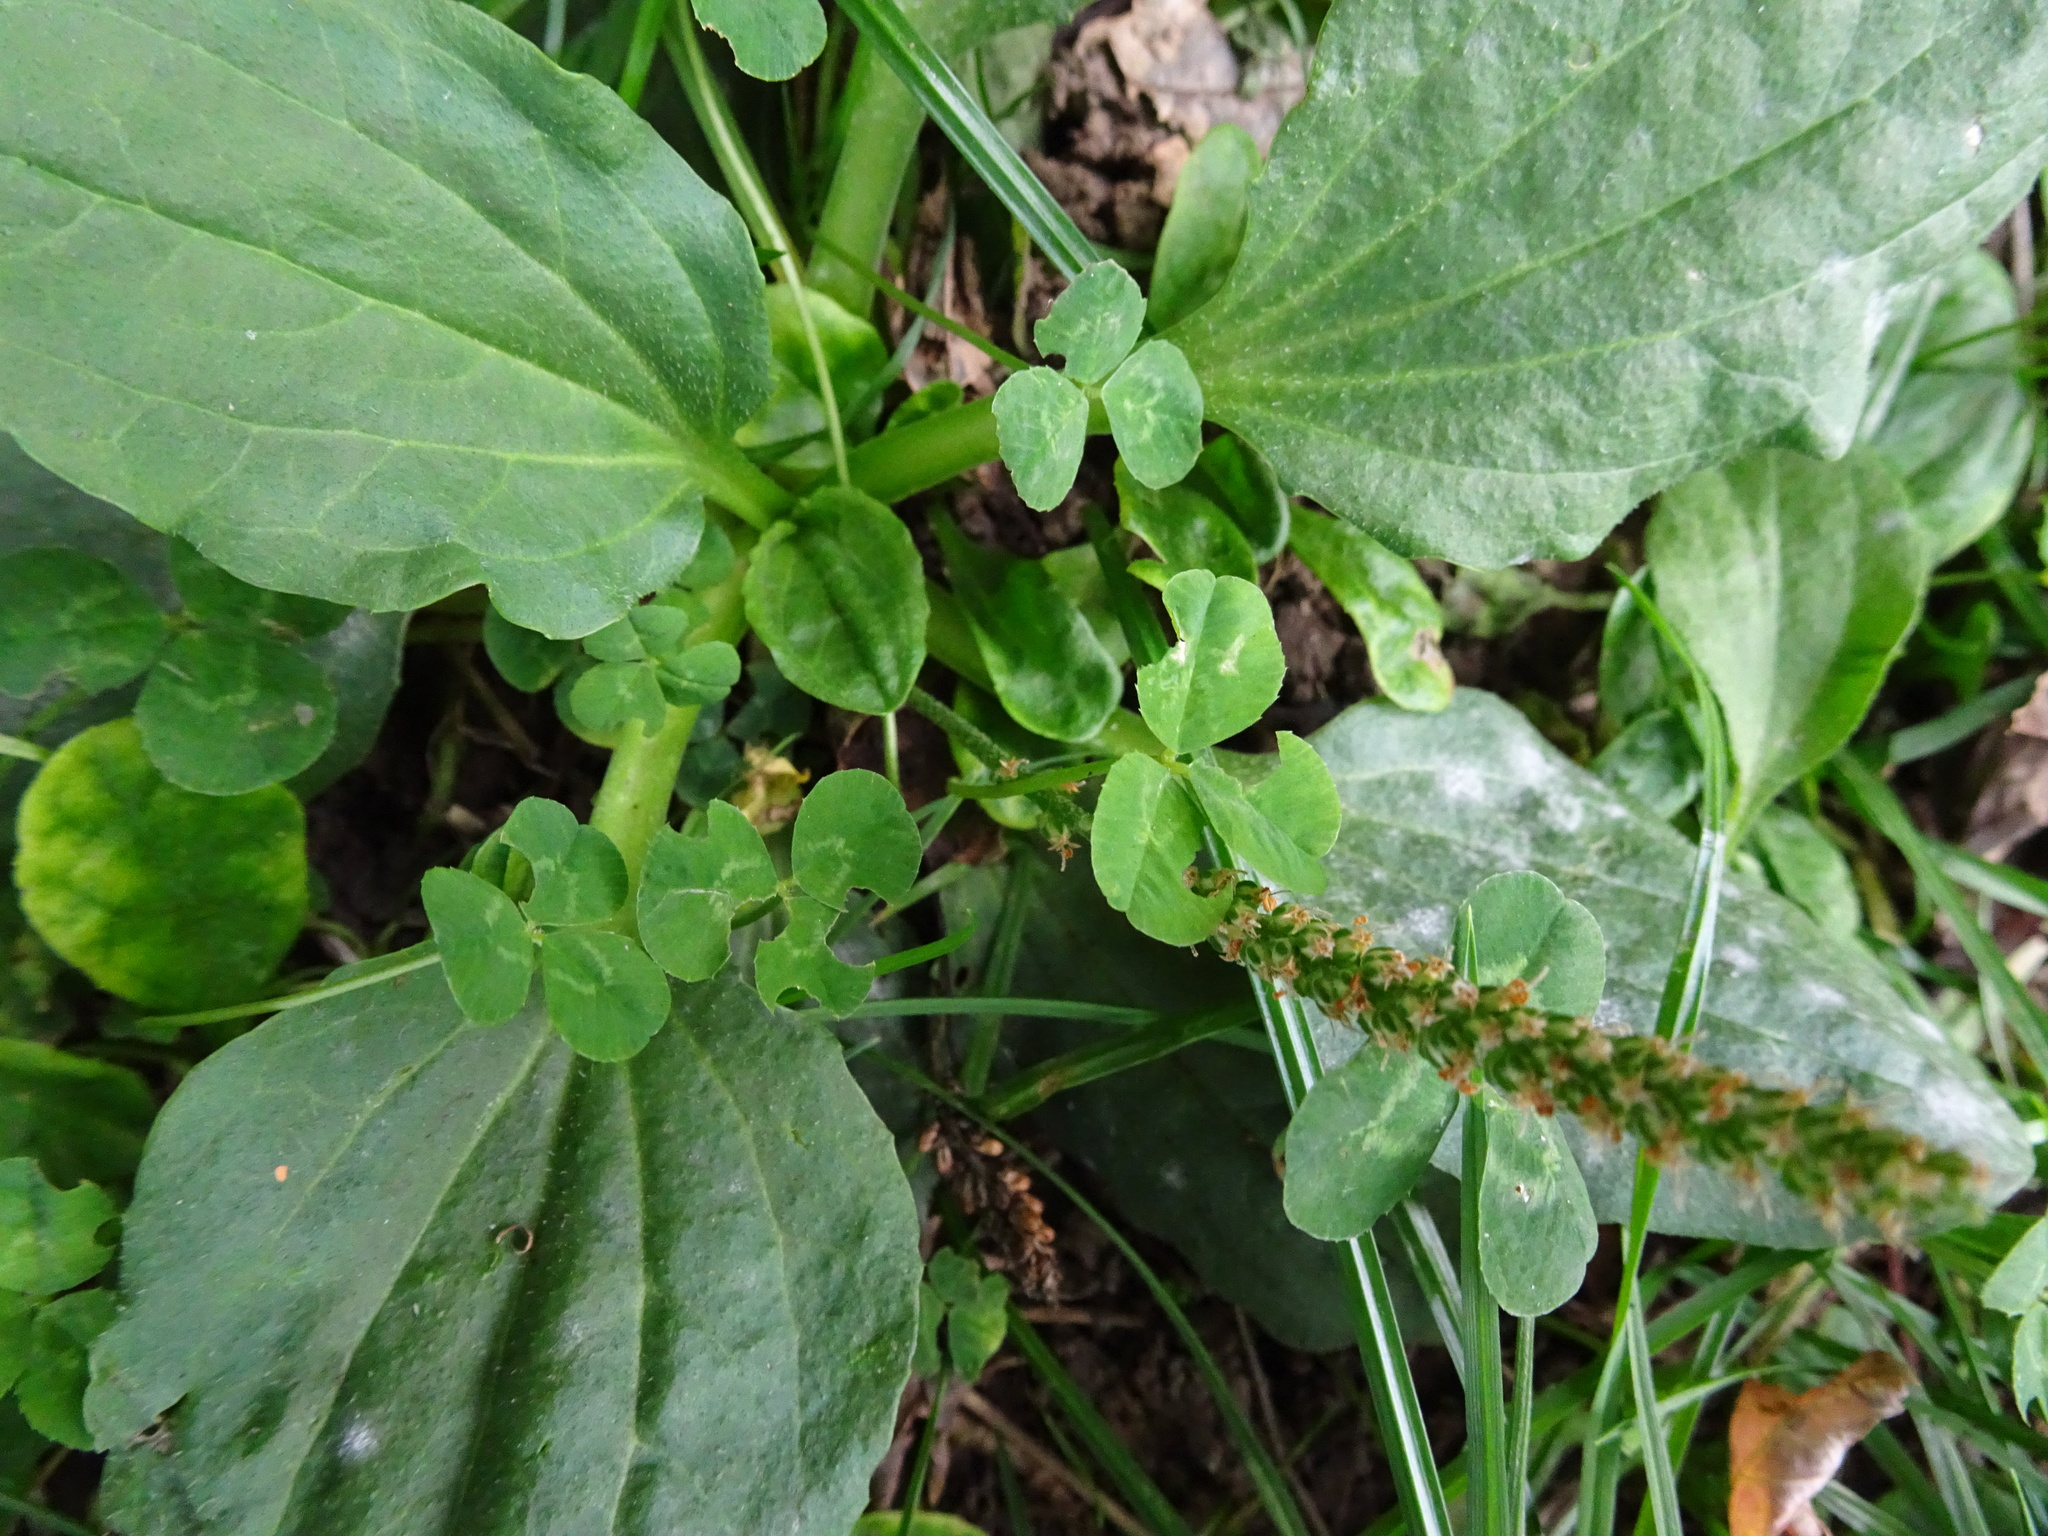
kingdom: Plantae
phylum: Tracheophyta
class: Magnoliopsida
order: Lamiales
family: Plantaginaceae
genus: Plantago
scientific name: Plantago major
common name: Common plantain
